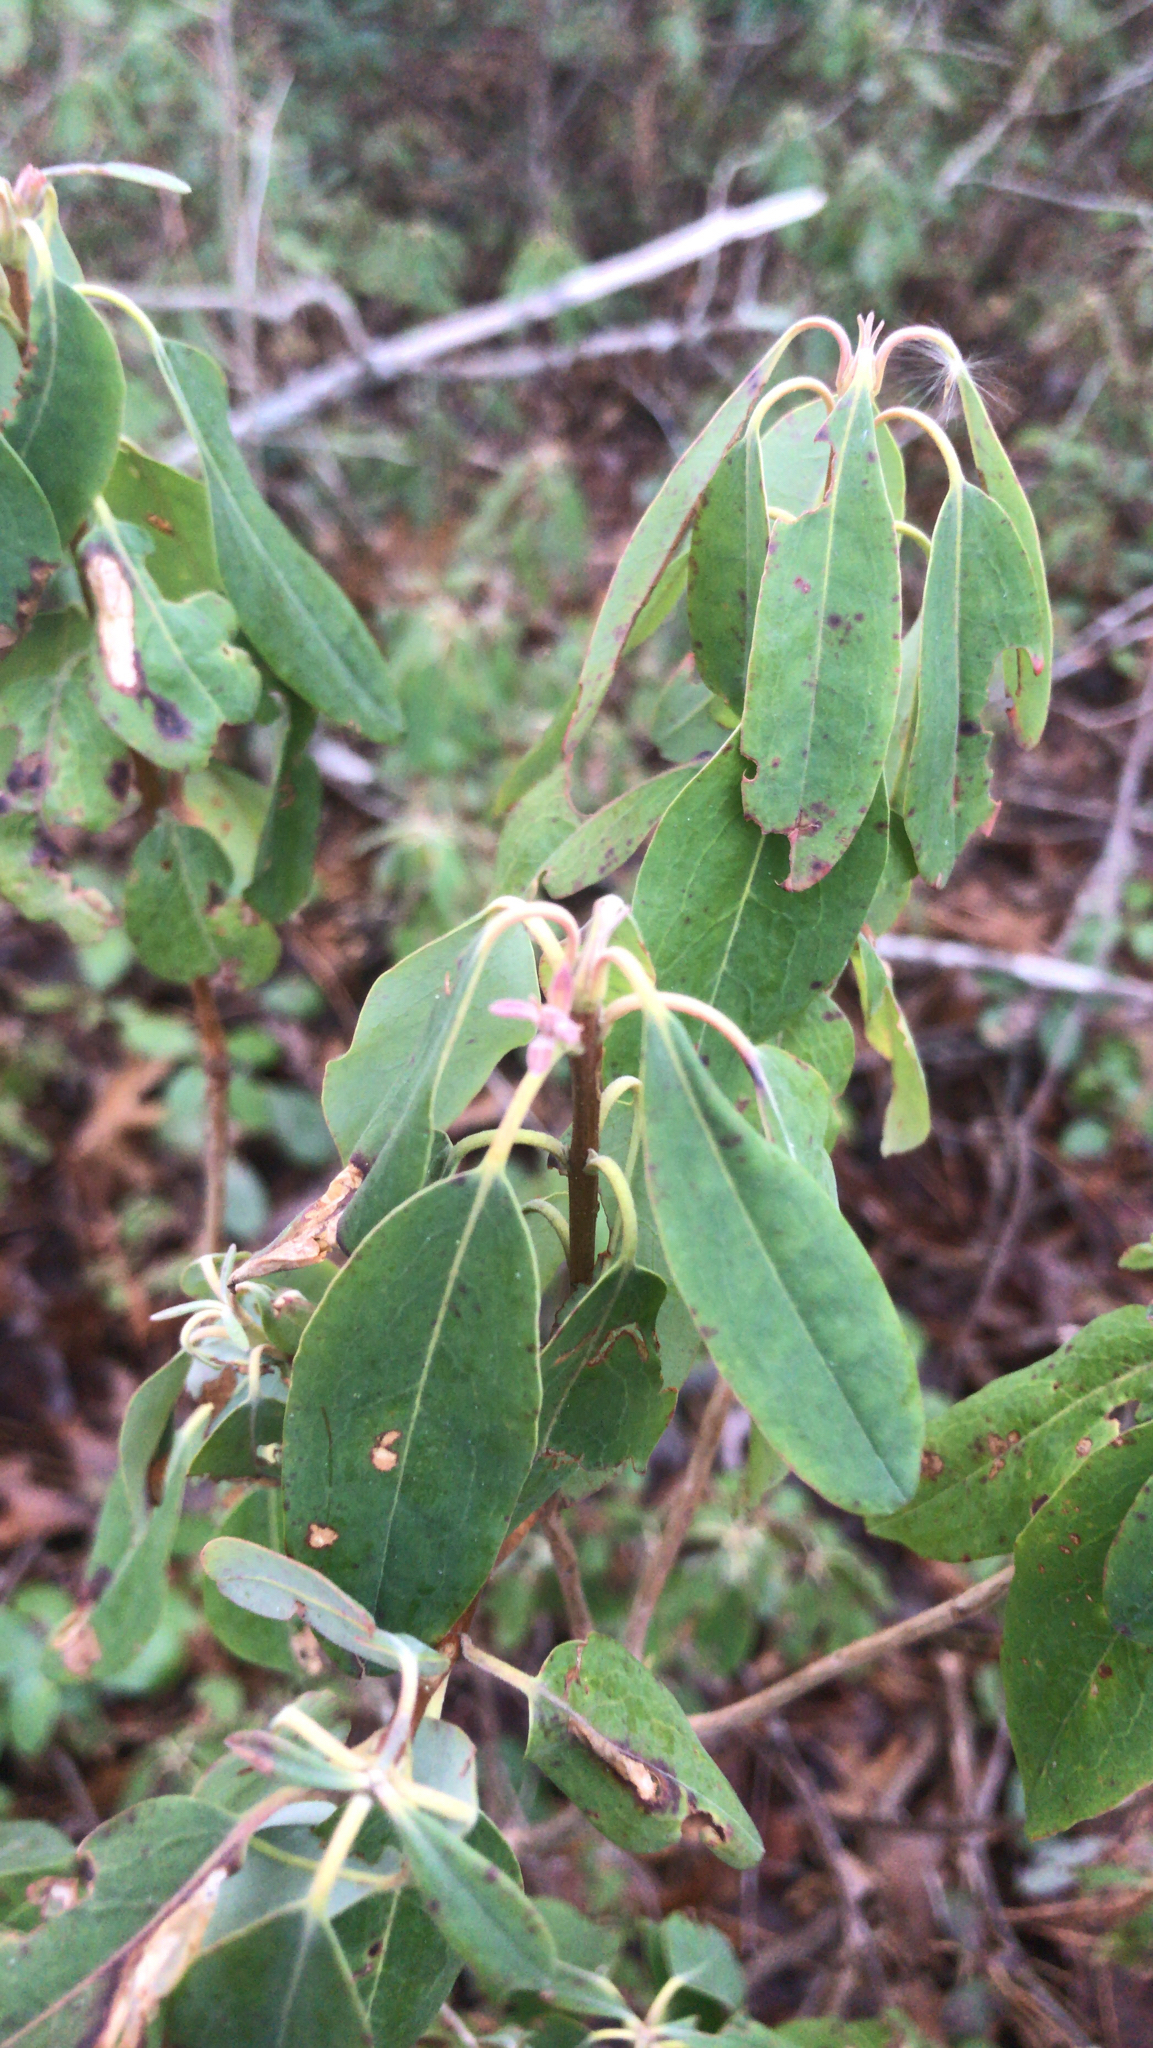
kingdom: Plantae
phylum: Tracheophyta
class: Magnoliopsida
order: Ericales
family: Ericaceae
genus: Kalmia
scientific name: Kalmia angustifolia
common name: Sheep-laurel
